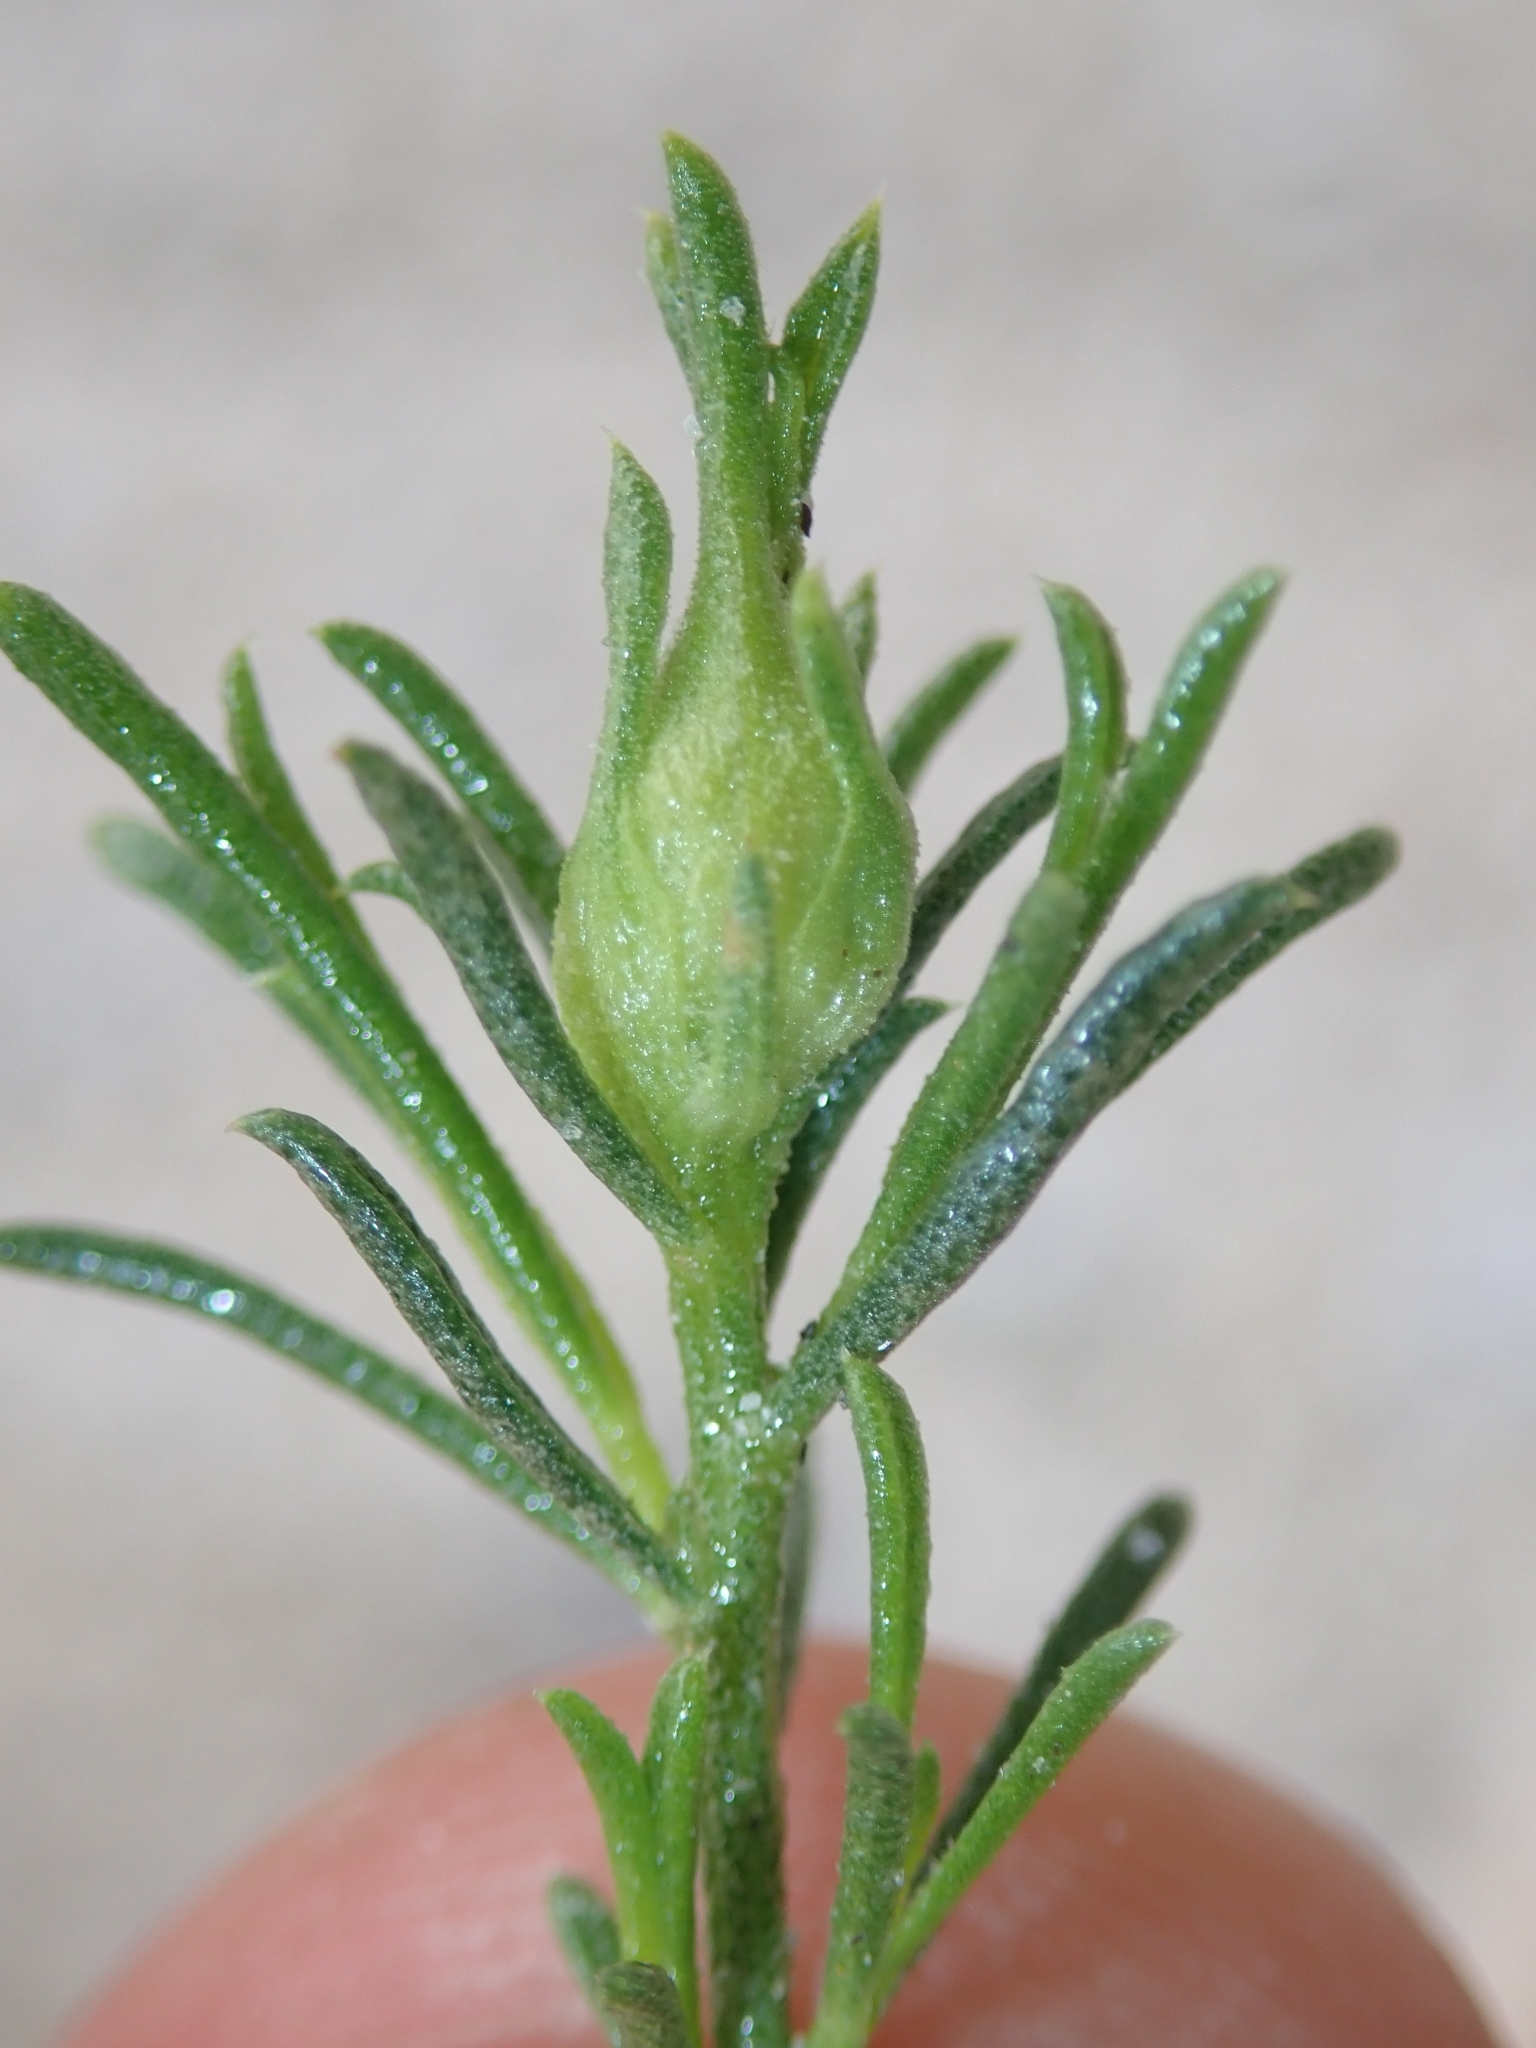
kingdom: Plantae
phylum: Tracheophyta
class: Magnoliopsida
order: Asterales
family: Asteraceae
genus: Ericameria
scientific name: Ericameria linearifolia
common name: Interior goldenbush
